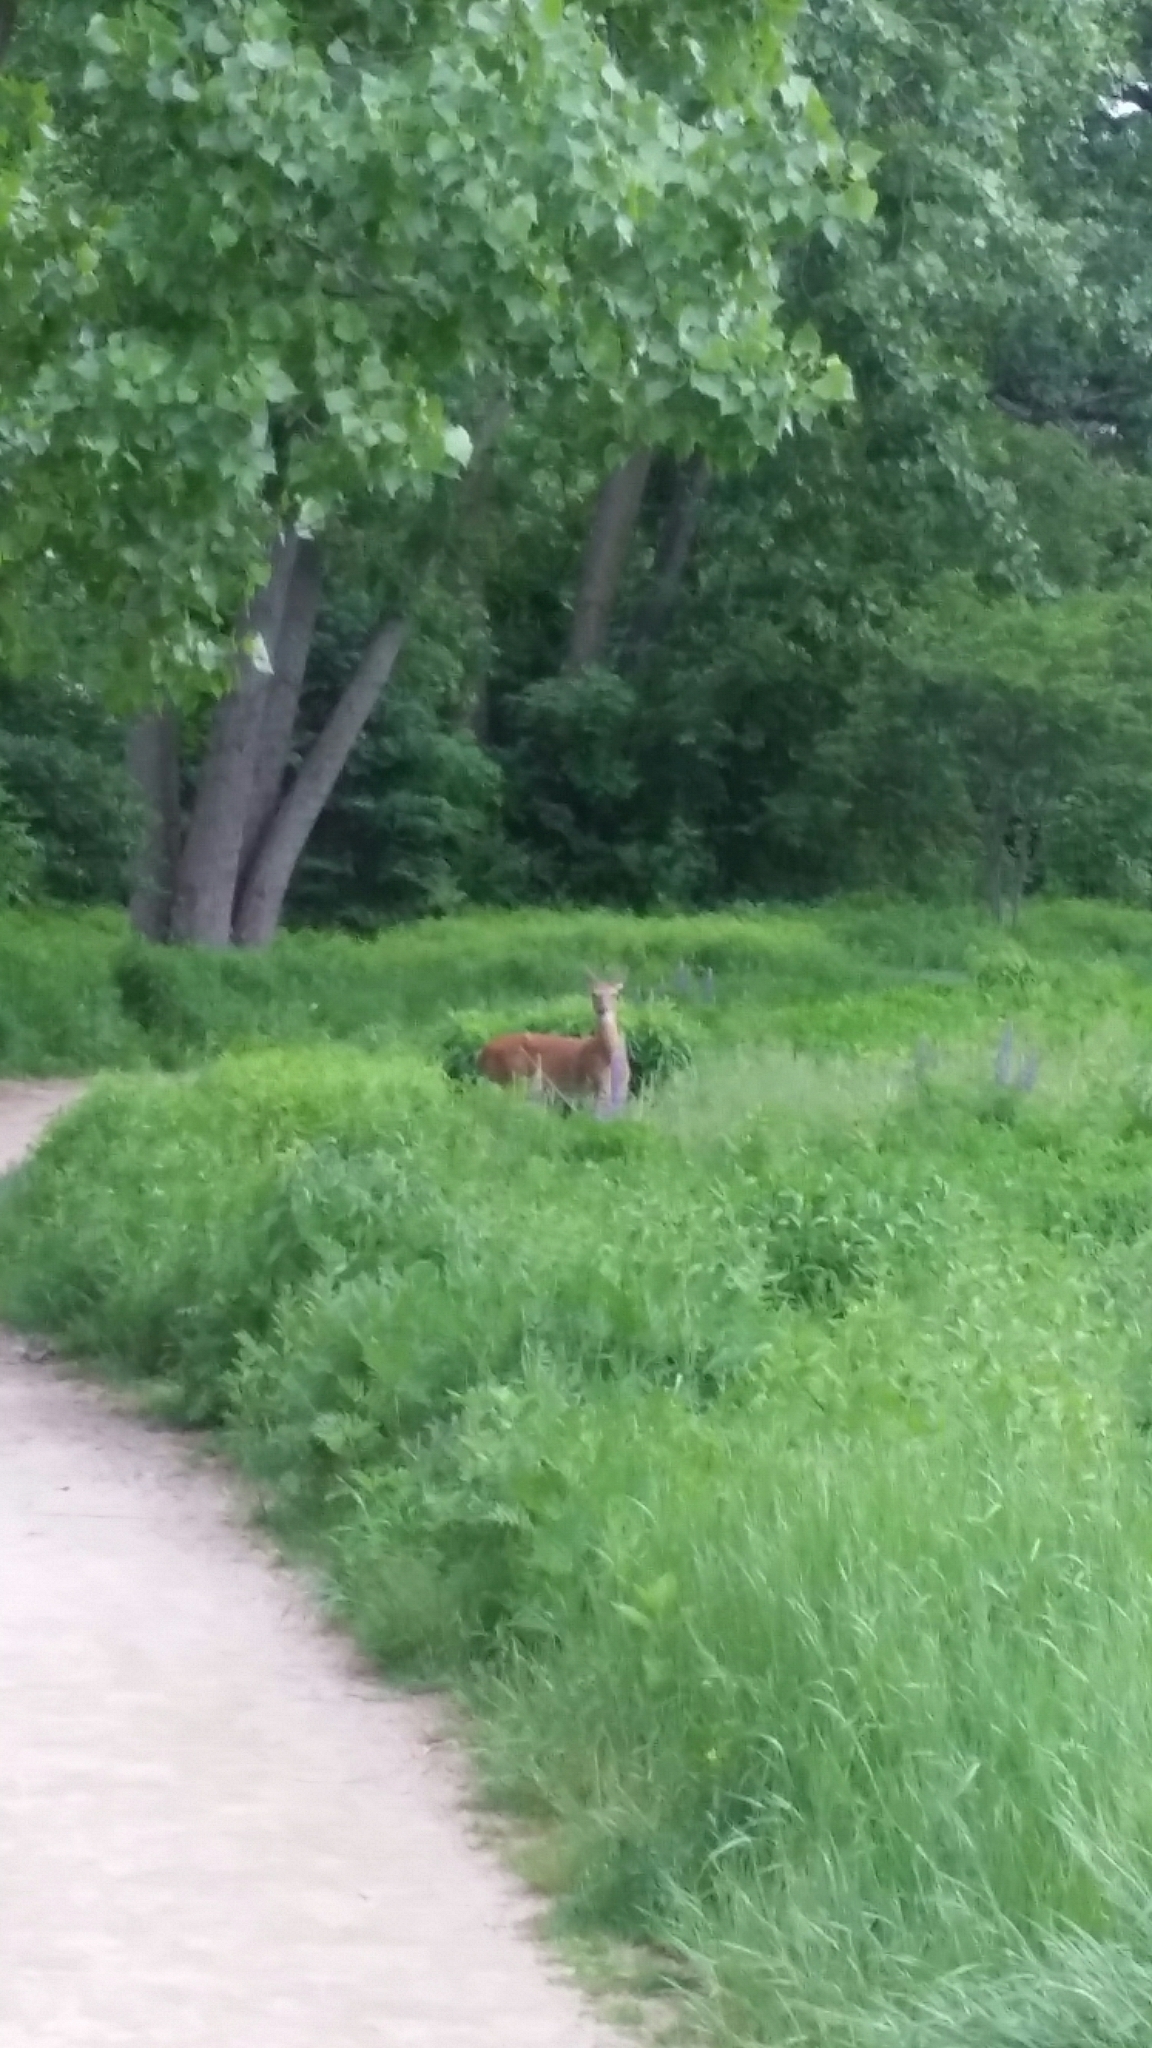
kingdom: Animalia
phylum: Chordata
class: Mammalia
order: Artiodactyla
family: Cervidae
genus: Odocoileus
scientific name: Odocoileus virginianus
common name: White-tailed deer
